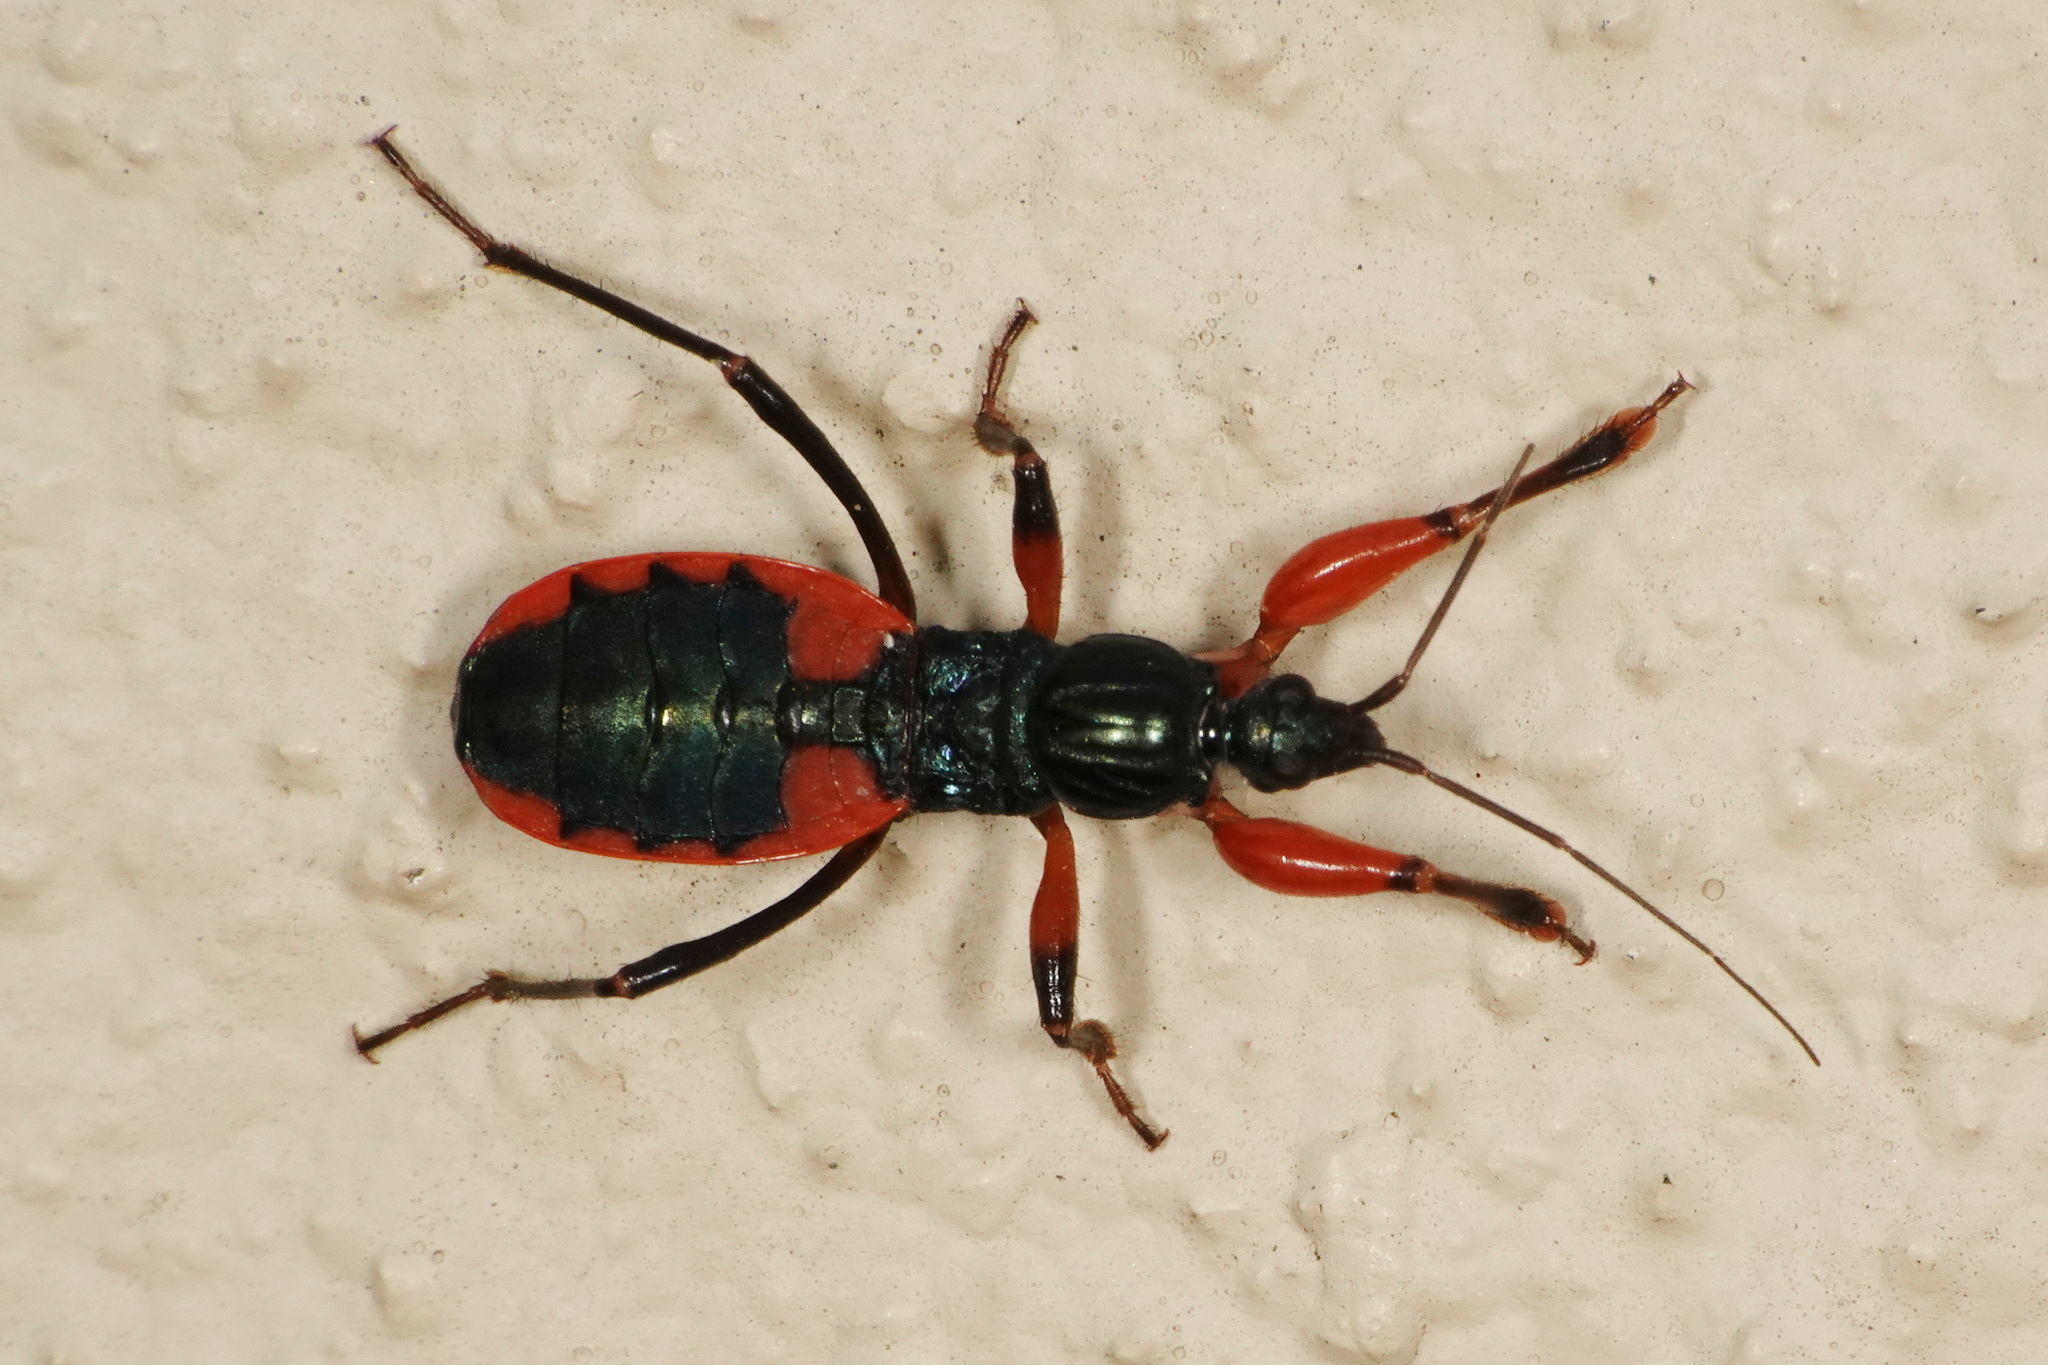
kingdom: Animalia
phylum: Arthropoda
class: Insecta
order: Hemiptera
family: Reduviidae
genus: Ectomocoris
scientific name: Ectomocoris binotatus
